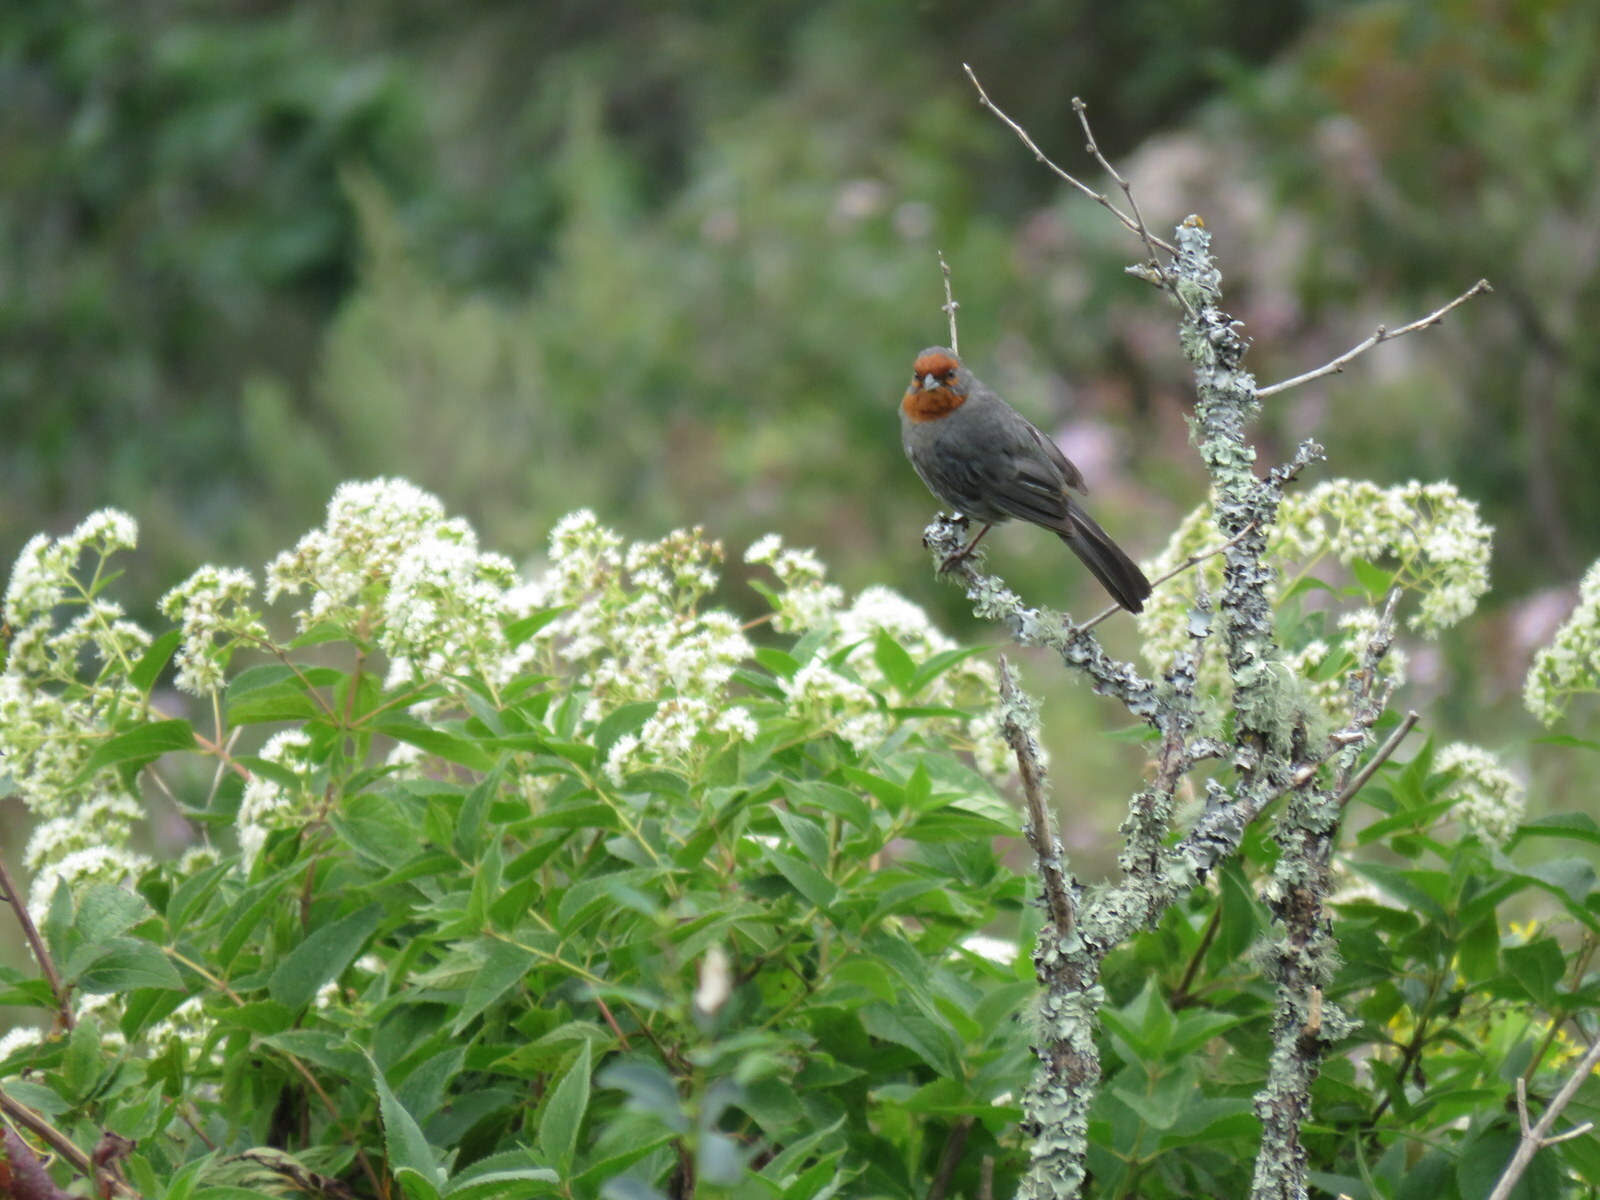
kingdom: Animalia
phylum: Chordata
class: Aves
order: Passeriformes
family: Thraupidae
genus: Poospiza
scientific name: Poospiza baeri
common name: Tucuman mountain-finch
